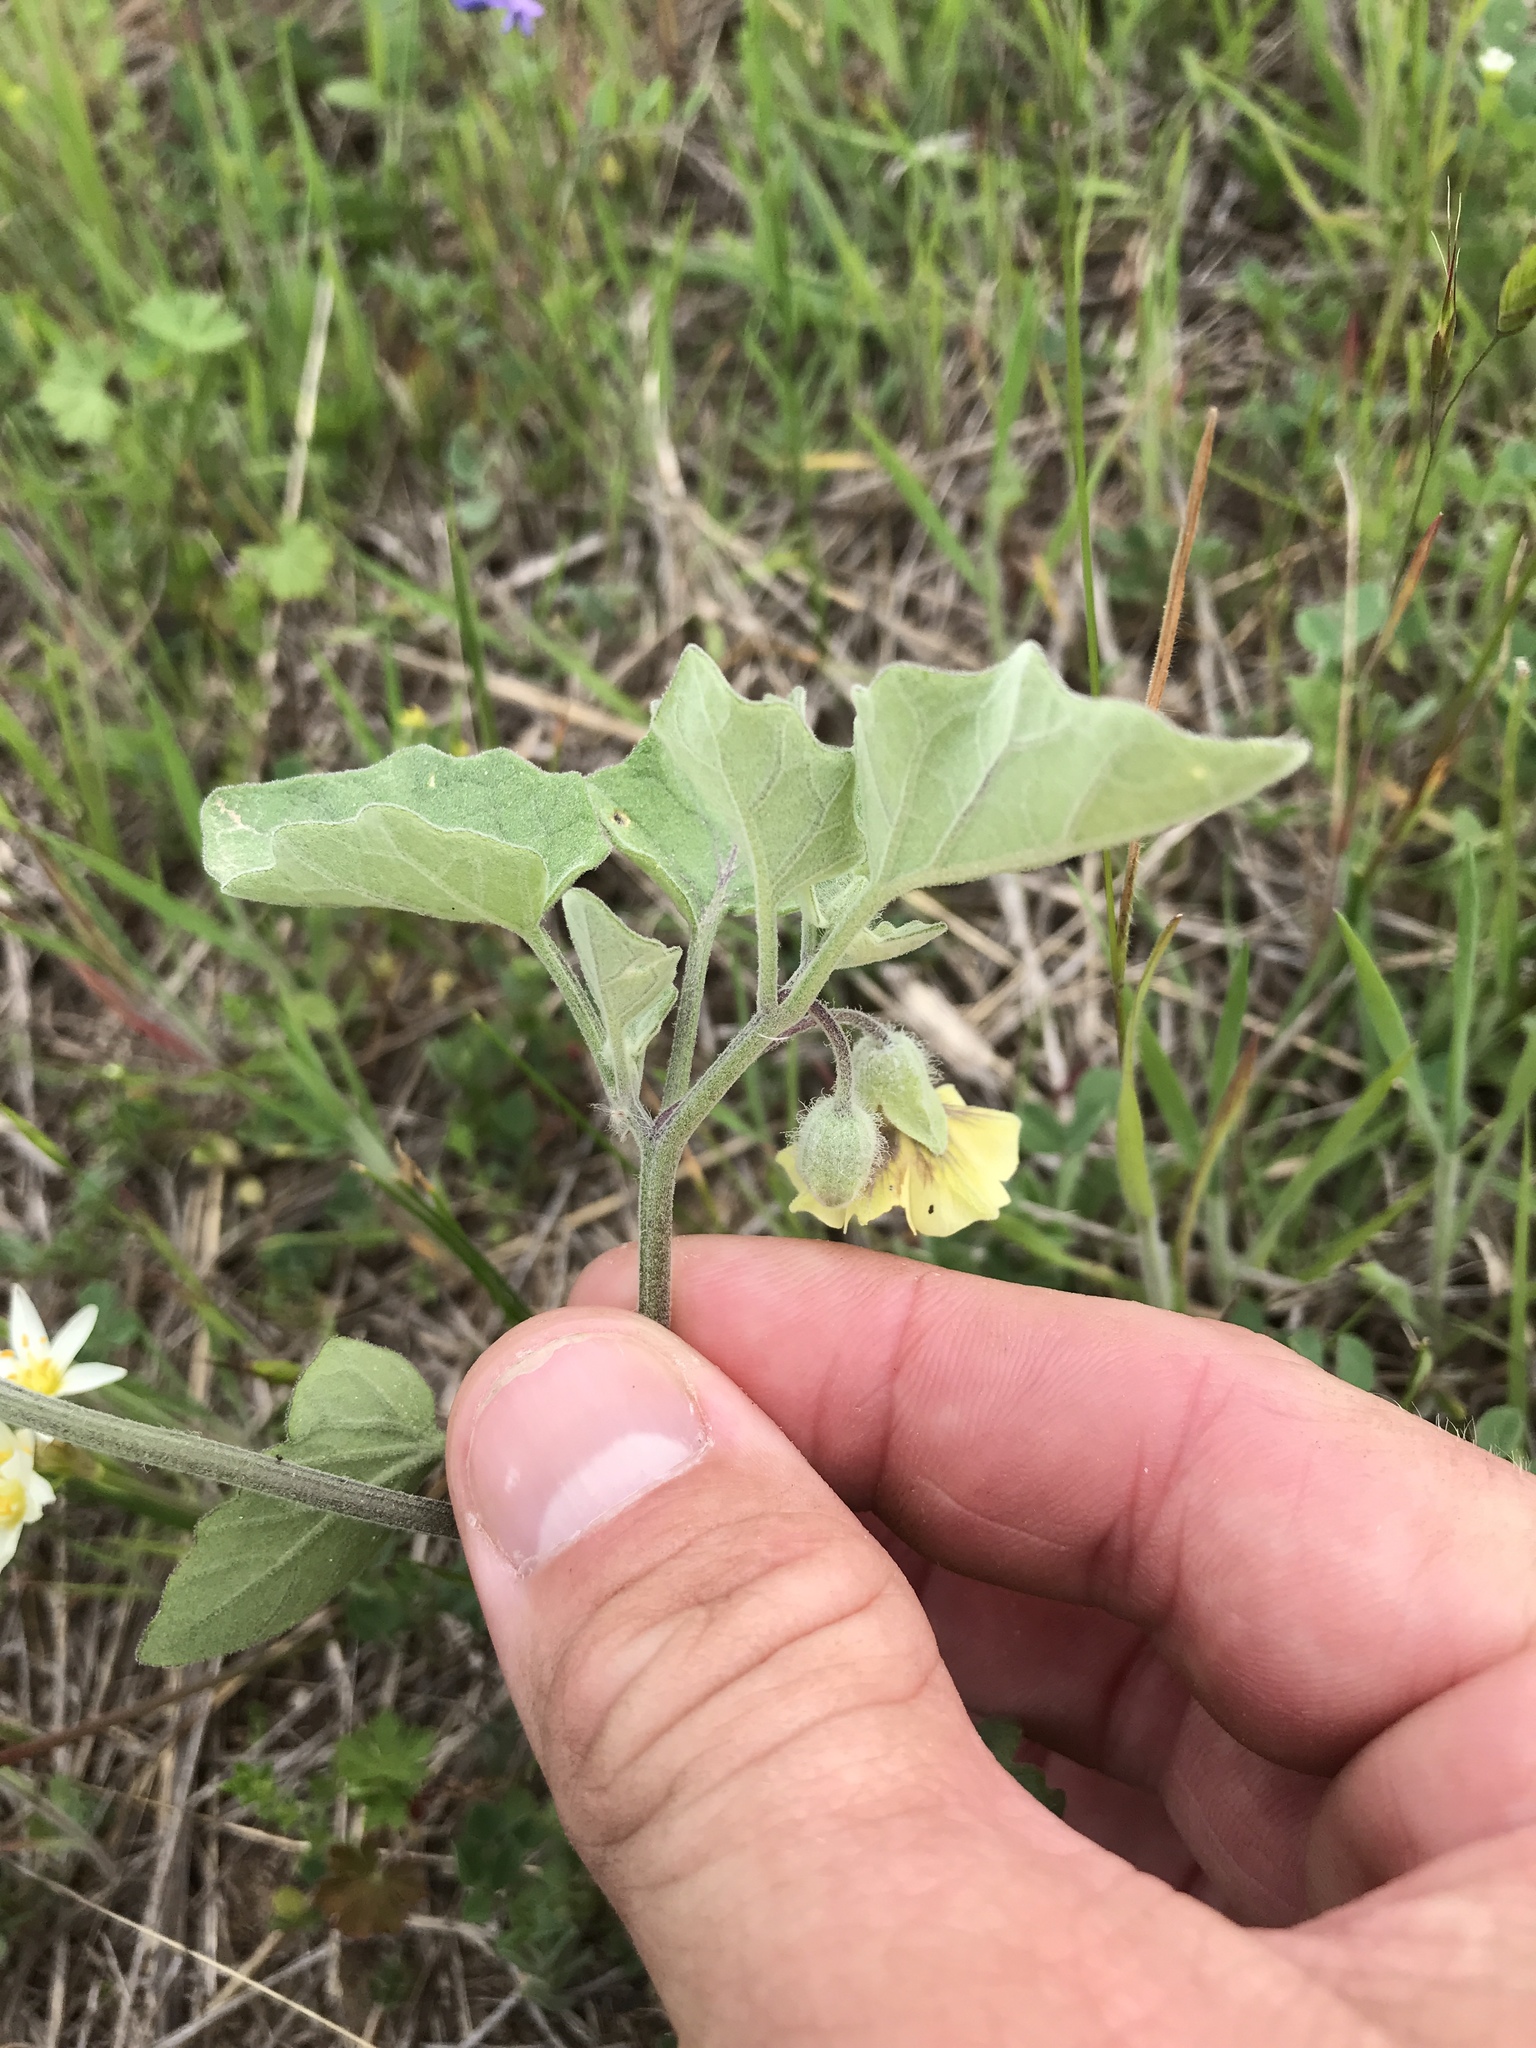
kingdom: Plantae
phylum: Tracheophyta
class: Magnoliopsida
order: Solanales
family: Solanaceae
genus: Physalis
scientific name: Physalis cinerascens
